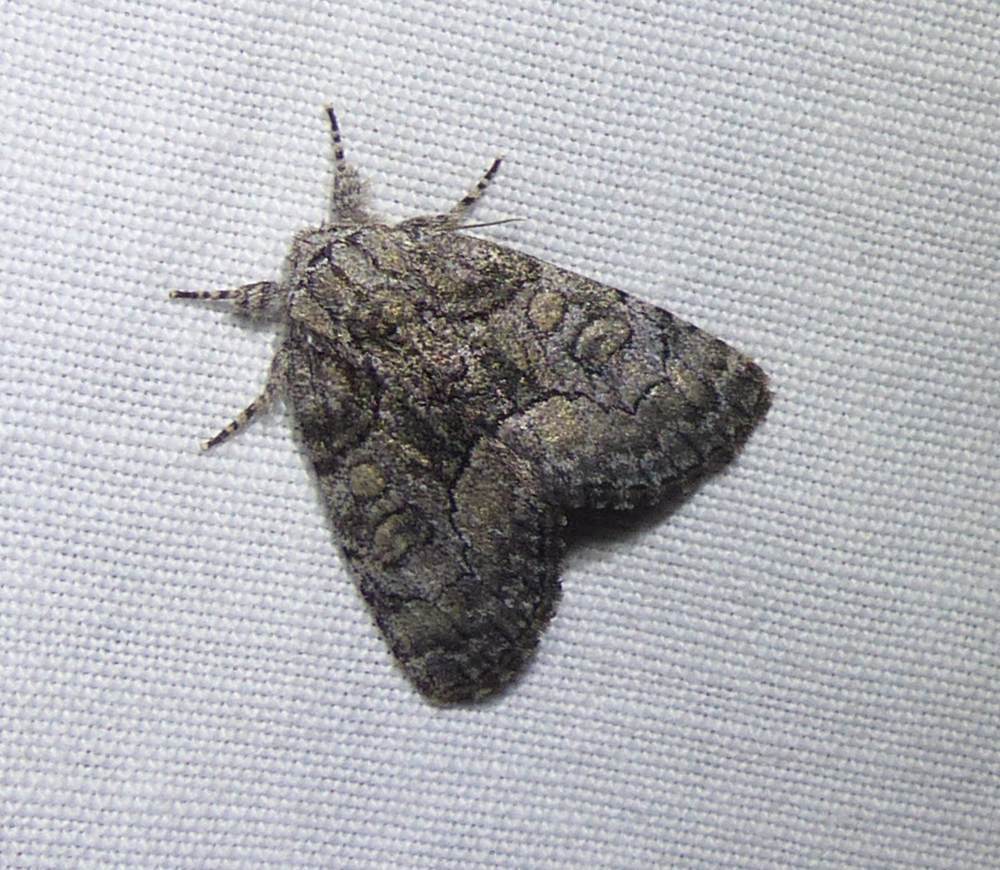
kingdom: Animalia
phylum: Arthropoda
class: Insecta
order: Lepidoptera
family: Noctuidae
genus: Raphia
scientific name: Raphia frater
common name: Brother
